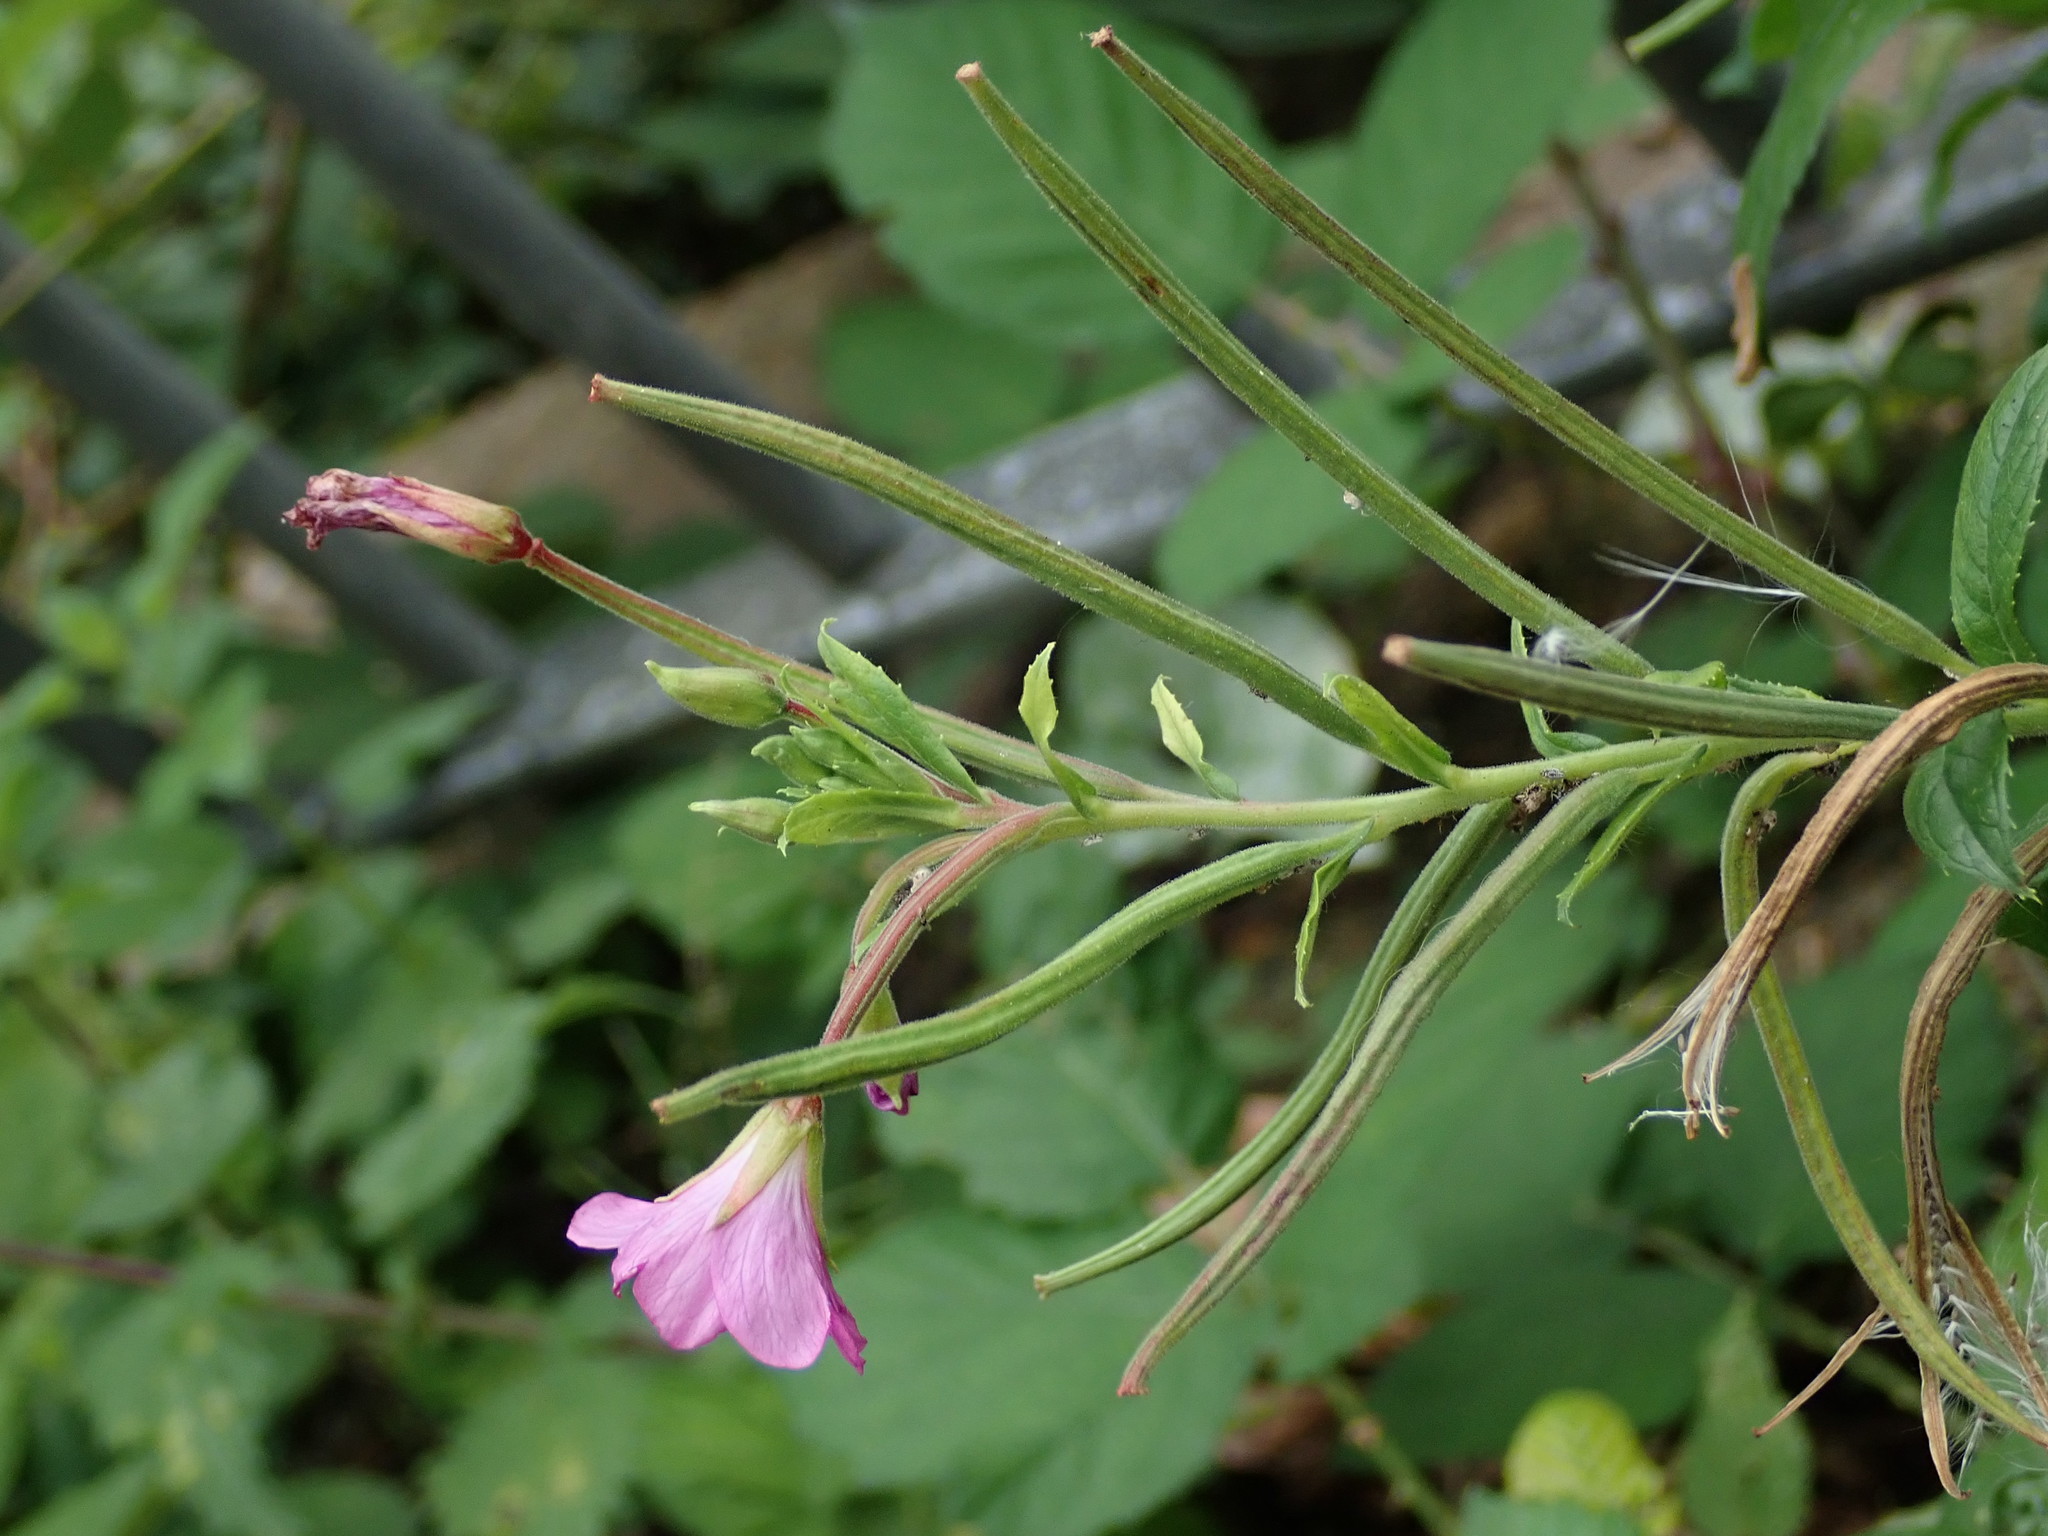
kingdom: Plantae
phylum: Tracheophyta
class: Magnoliopsida
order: Myrtales
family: Onagraceae
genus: Epilobium
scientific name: Epilobium hirsutum
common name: Great willowherb
